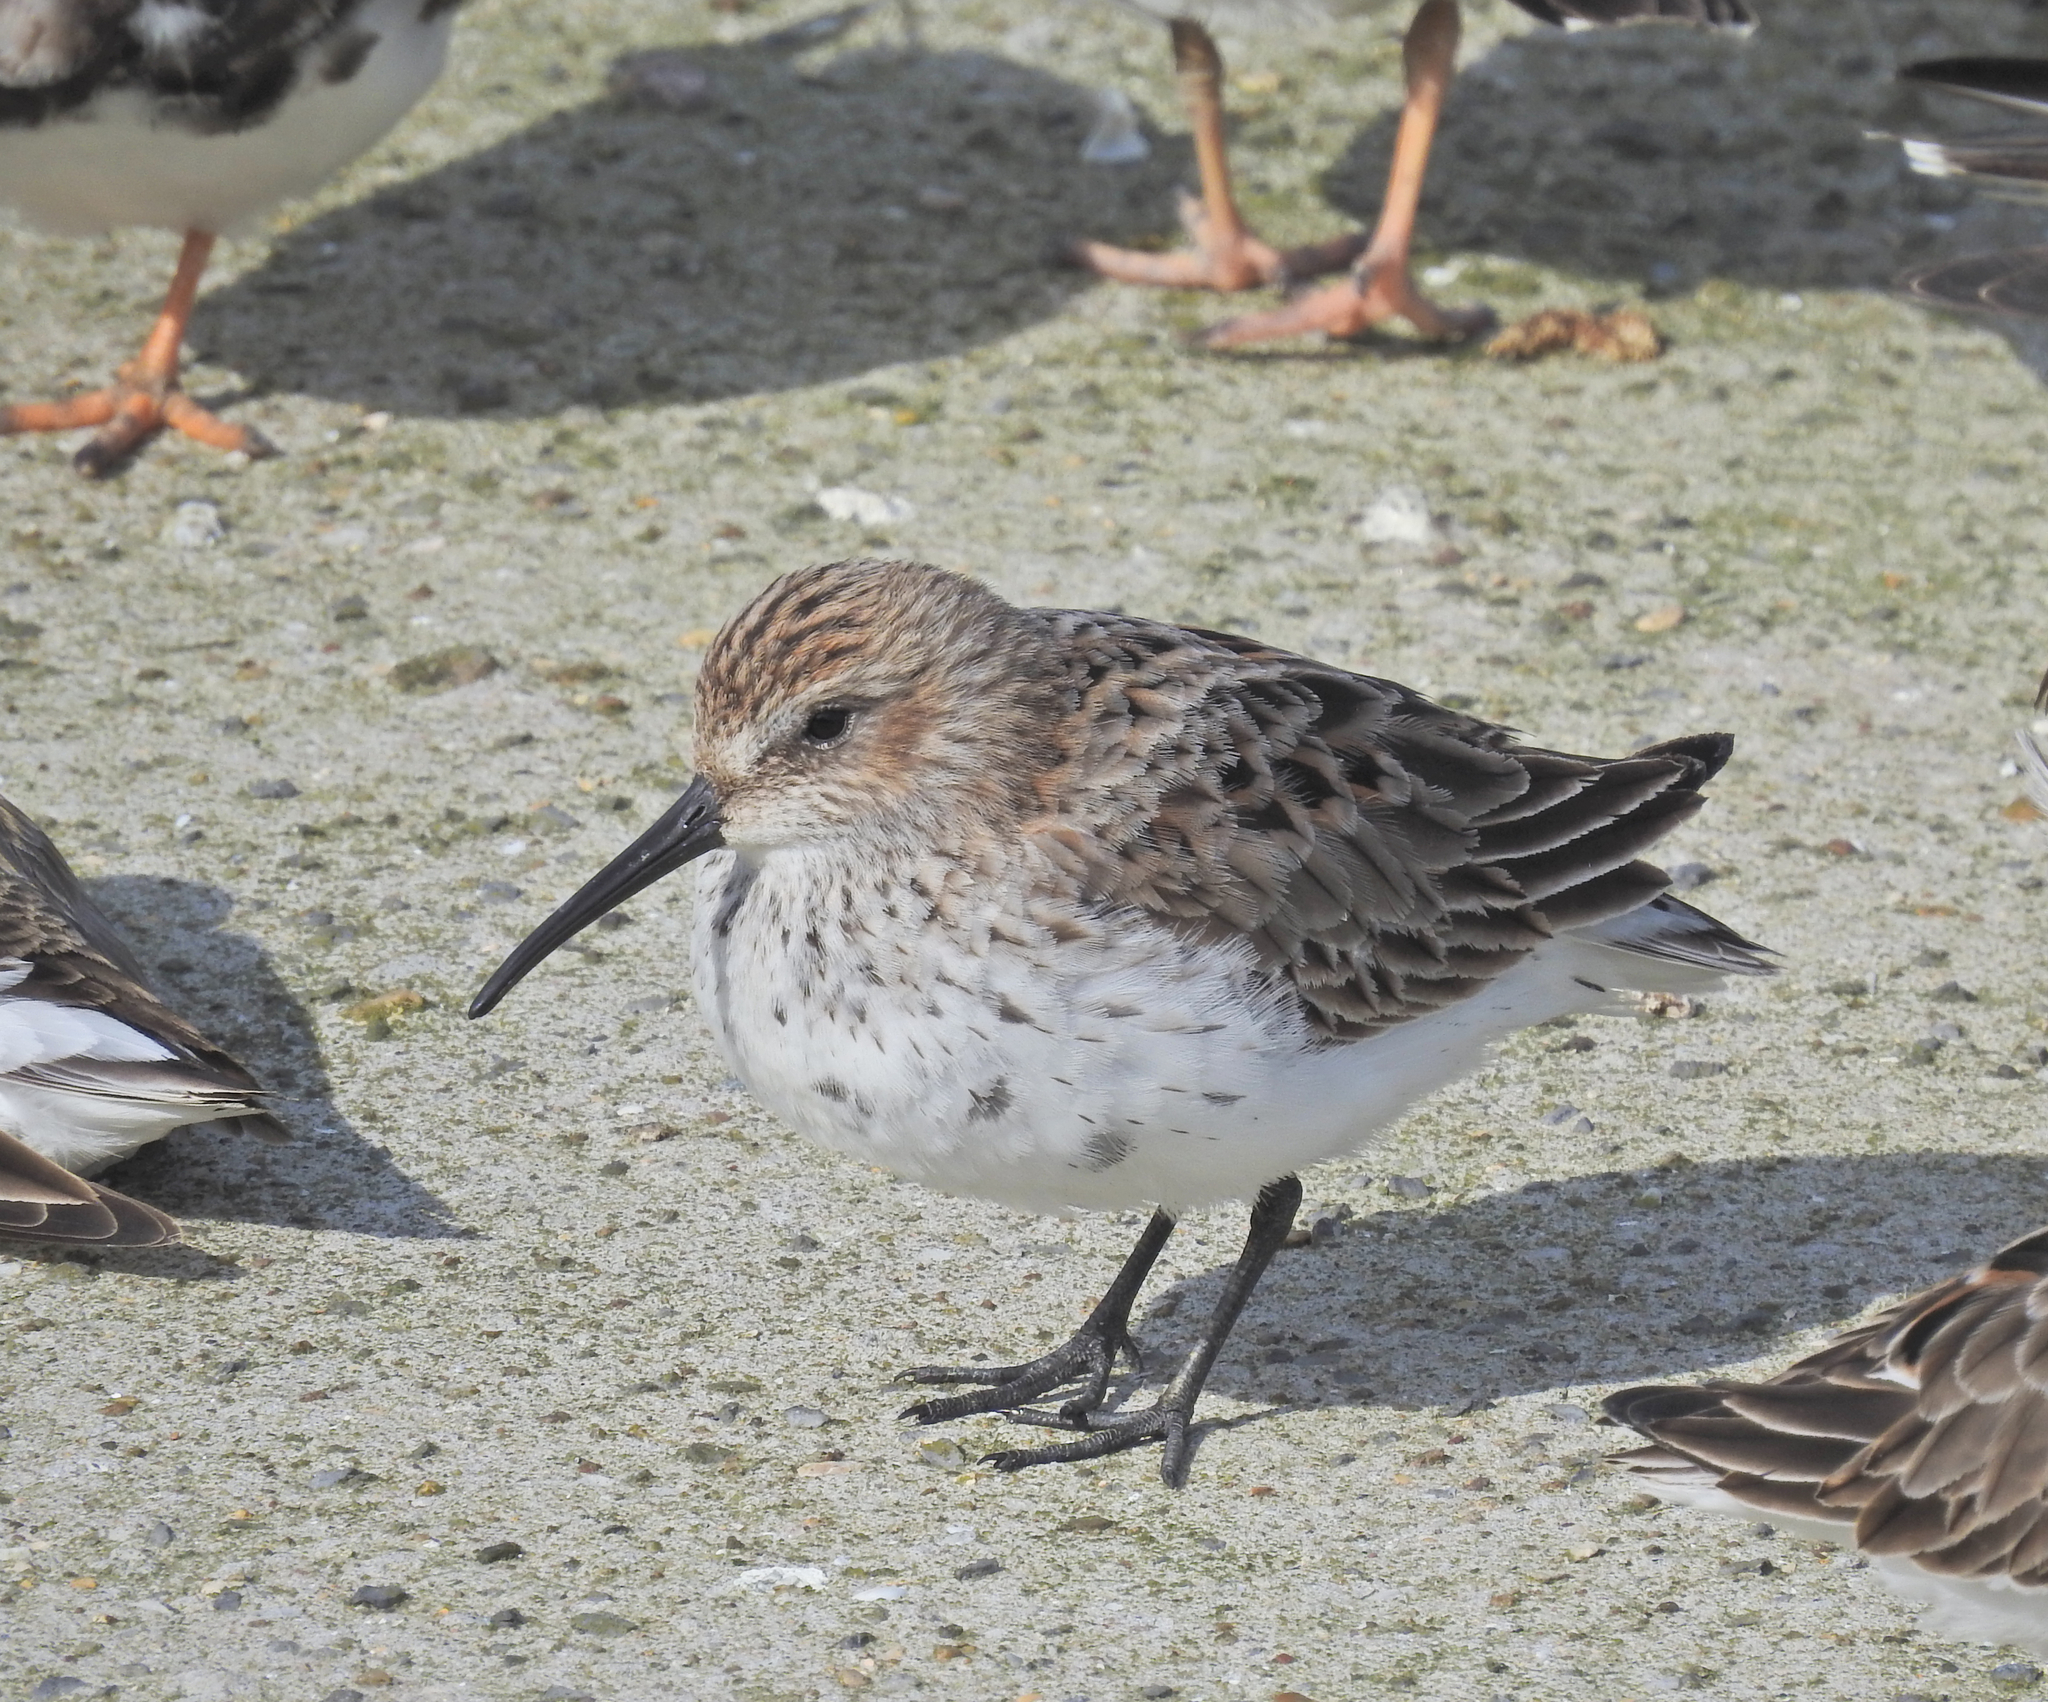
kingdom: Animalia
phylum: Chordata
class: Aves
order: Charadriiformes
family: Scolopacidae
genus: Calidris
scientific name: Calidris alpina
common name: Dunlin
